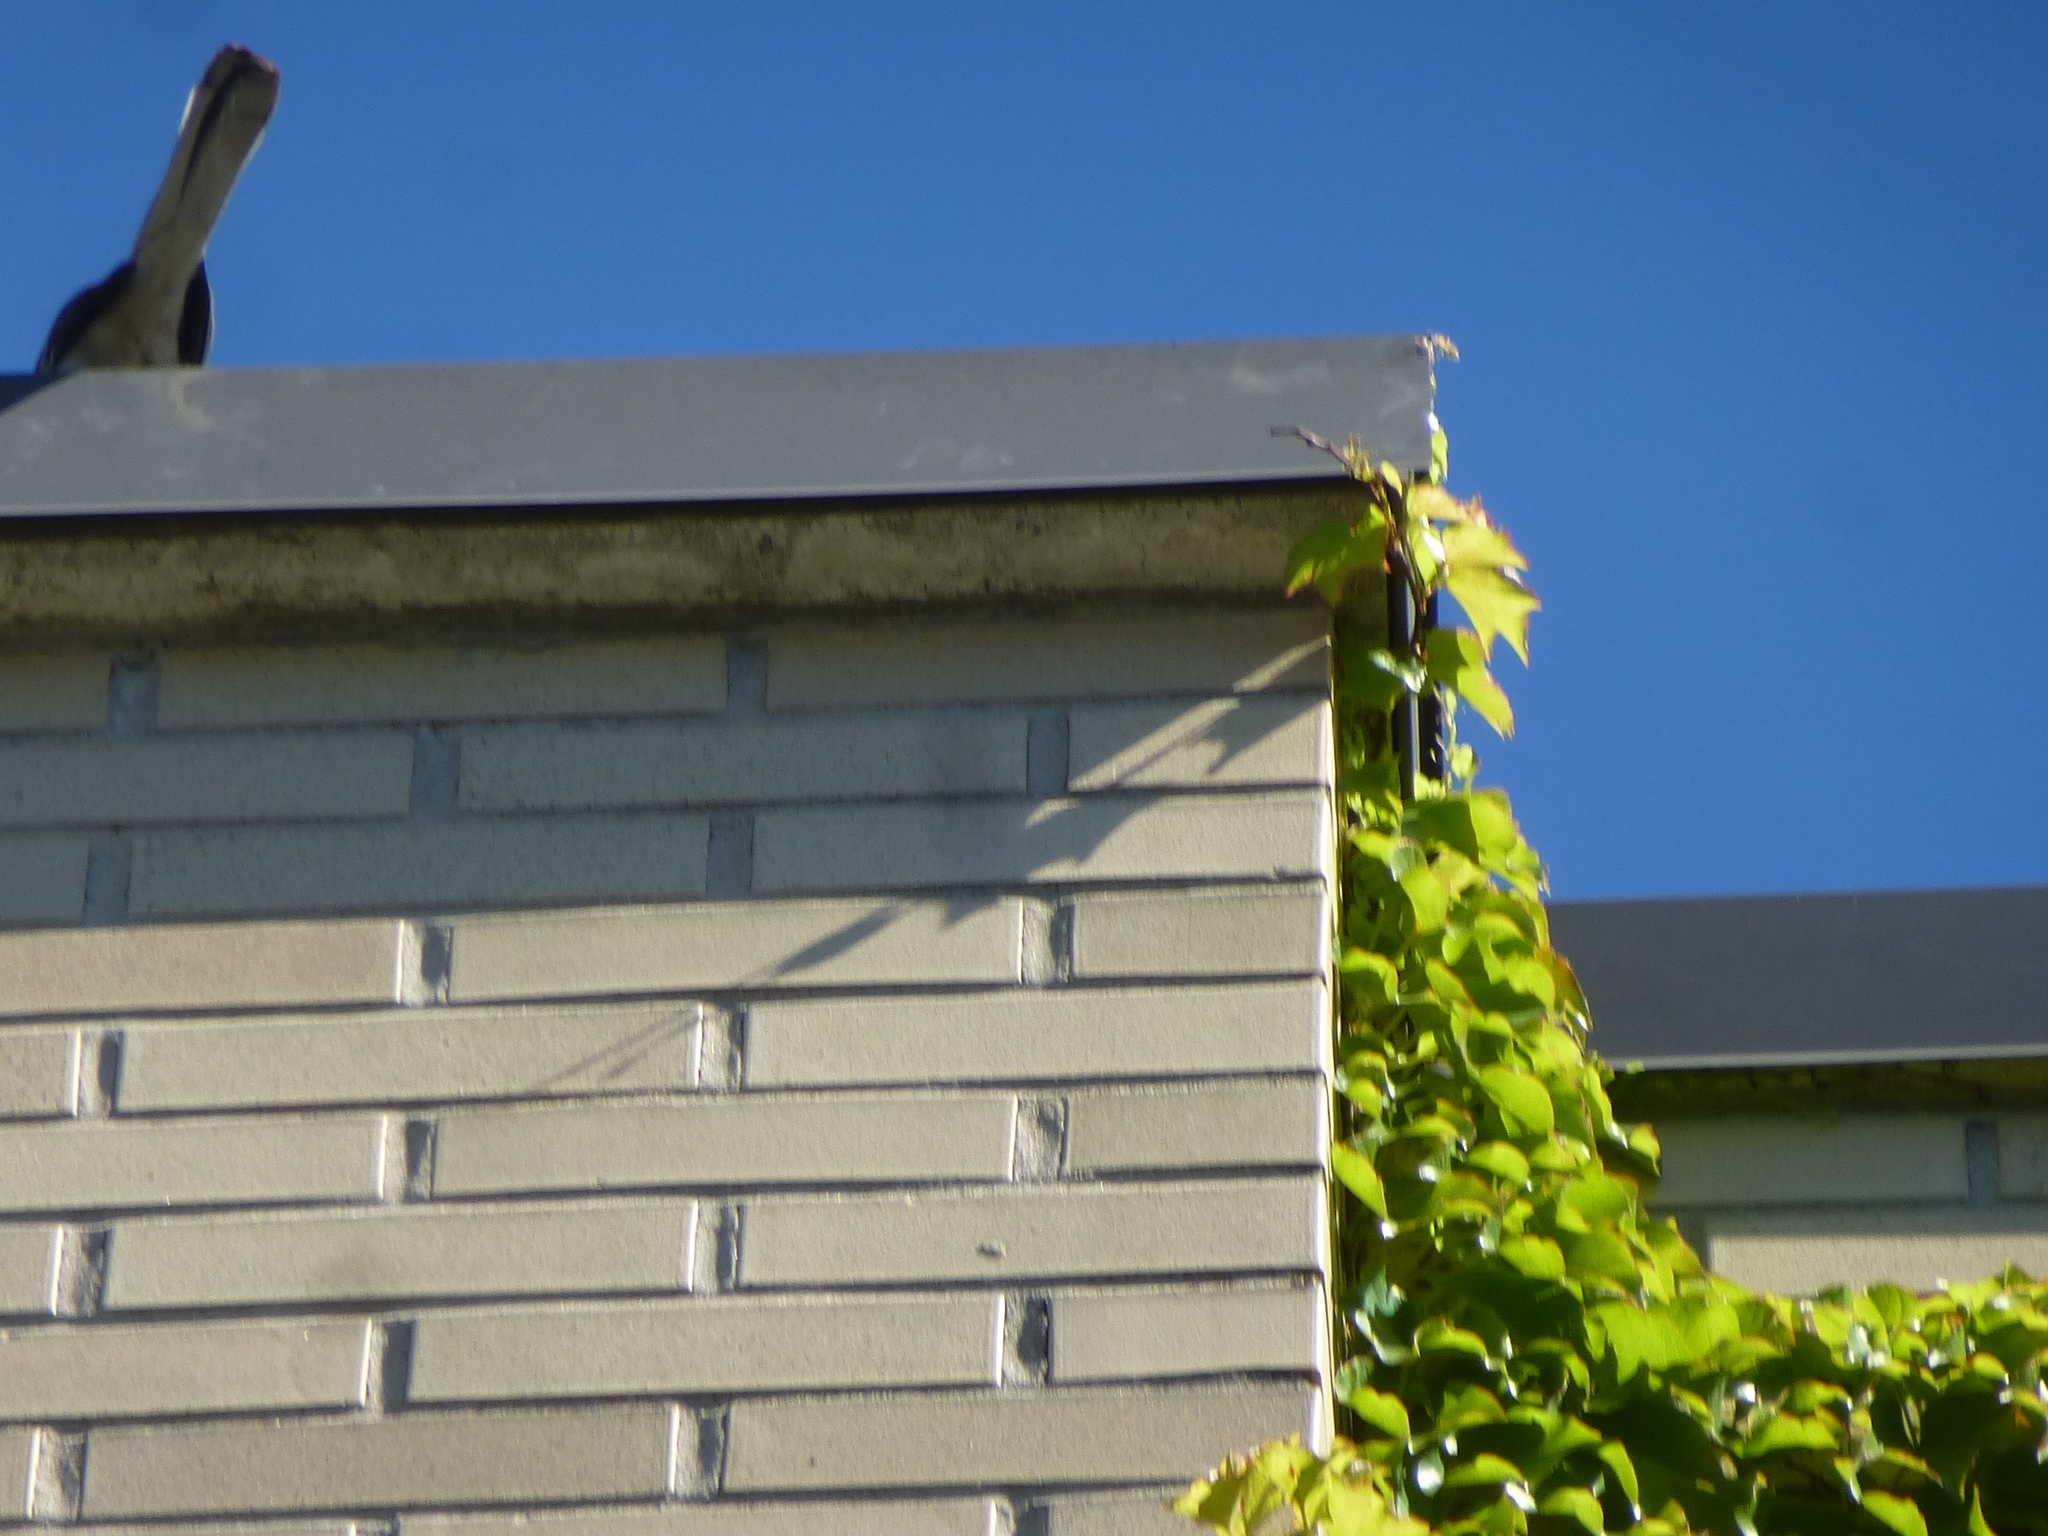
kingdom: Animalia
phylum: Chordata
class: Aves
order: Passeriformes
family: Mimidae
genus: Mimus
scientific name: Mimus polyglottos
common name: Northern mockingbird
